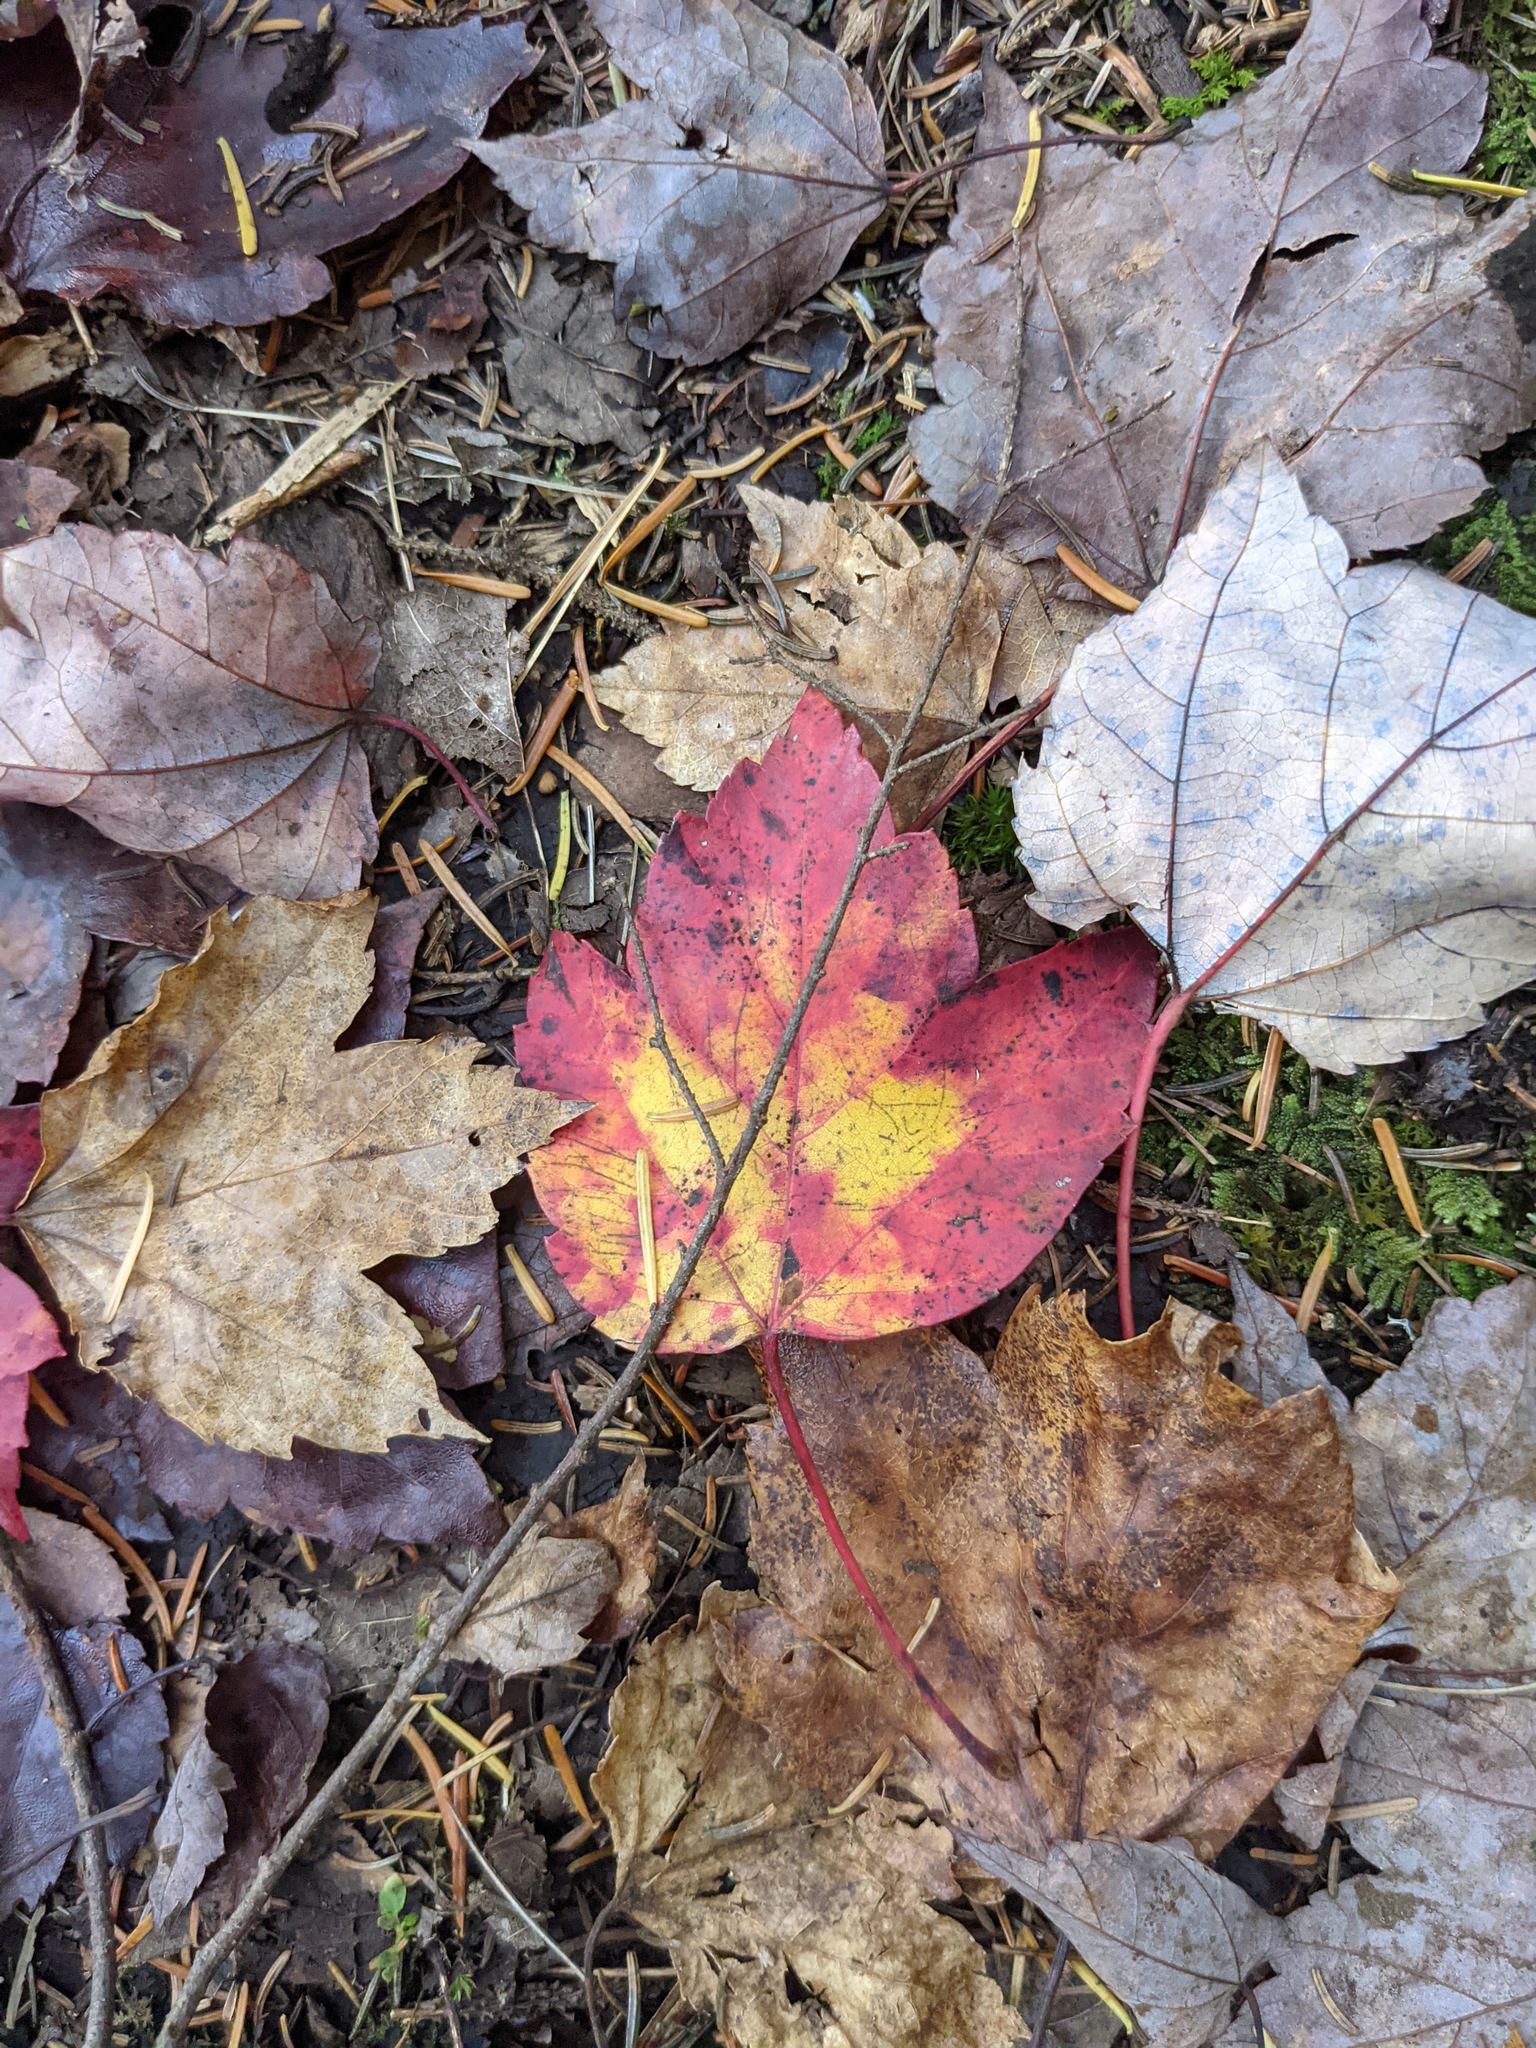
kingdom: Plantae
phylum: Tracheophyta
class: Magnoliopsida
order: Sapindales
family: Sapindaceae
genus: Acer
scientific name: Acer rubrum
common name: Red maple
